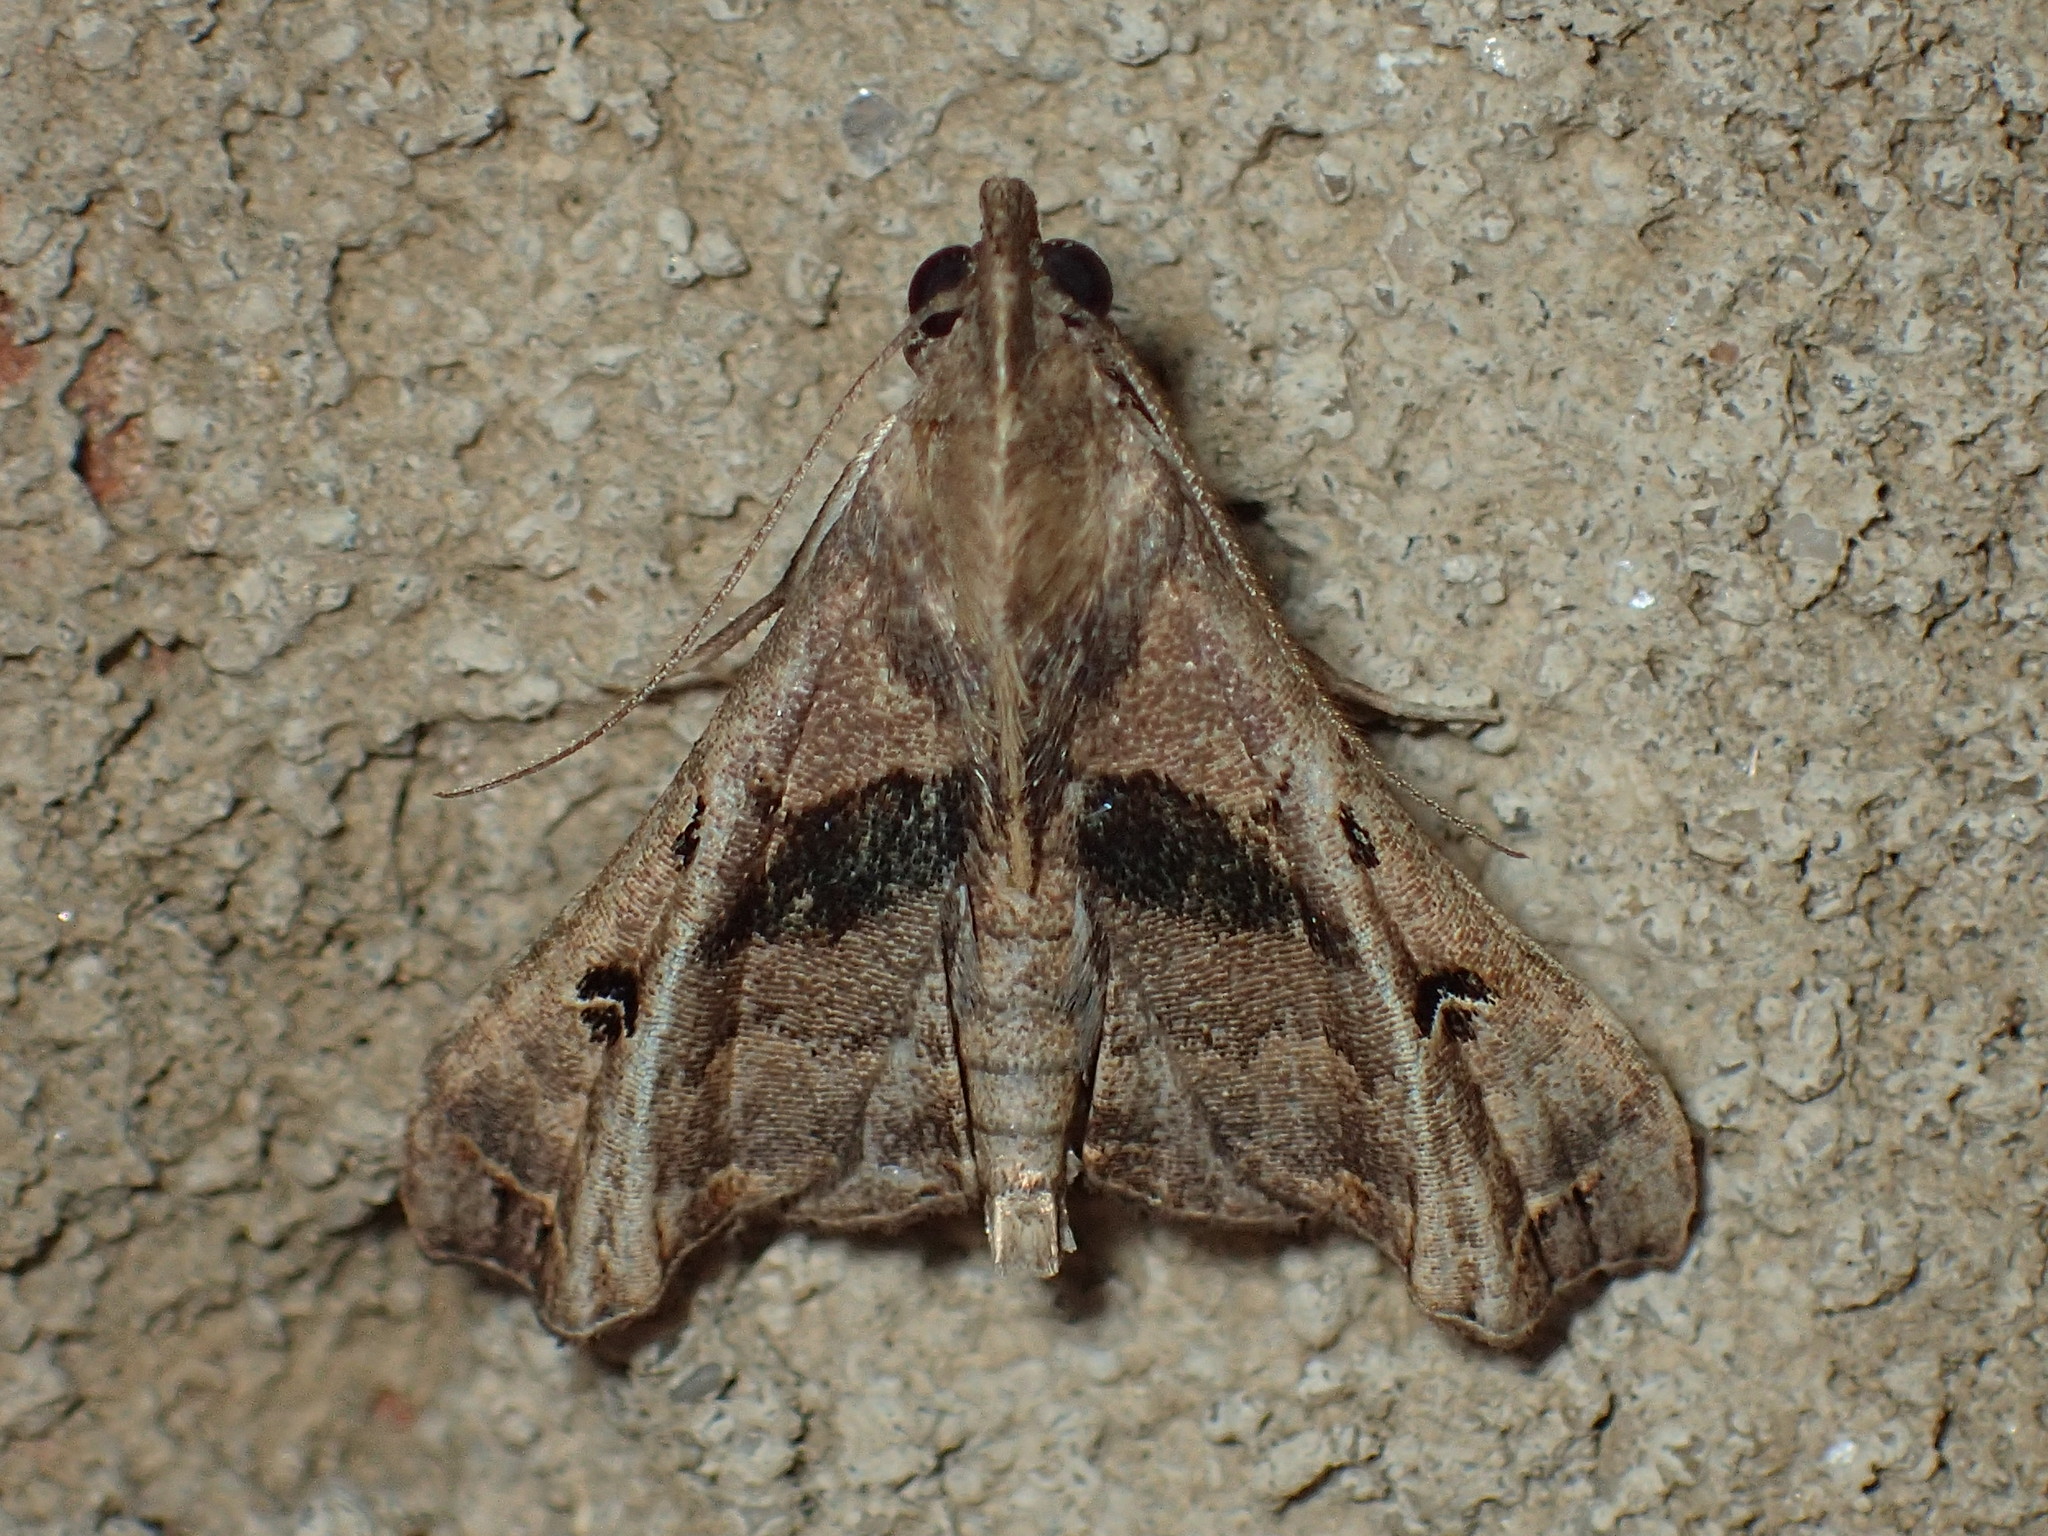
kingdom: Animalia
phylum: Arthropoda
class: Insecta
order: Lepidoptera
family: Erebidae
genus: Palthis
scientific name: Palthis asopialis
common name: Faint-spotted palthis moth
